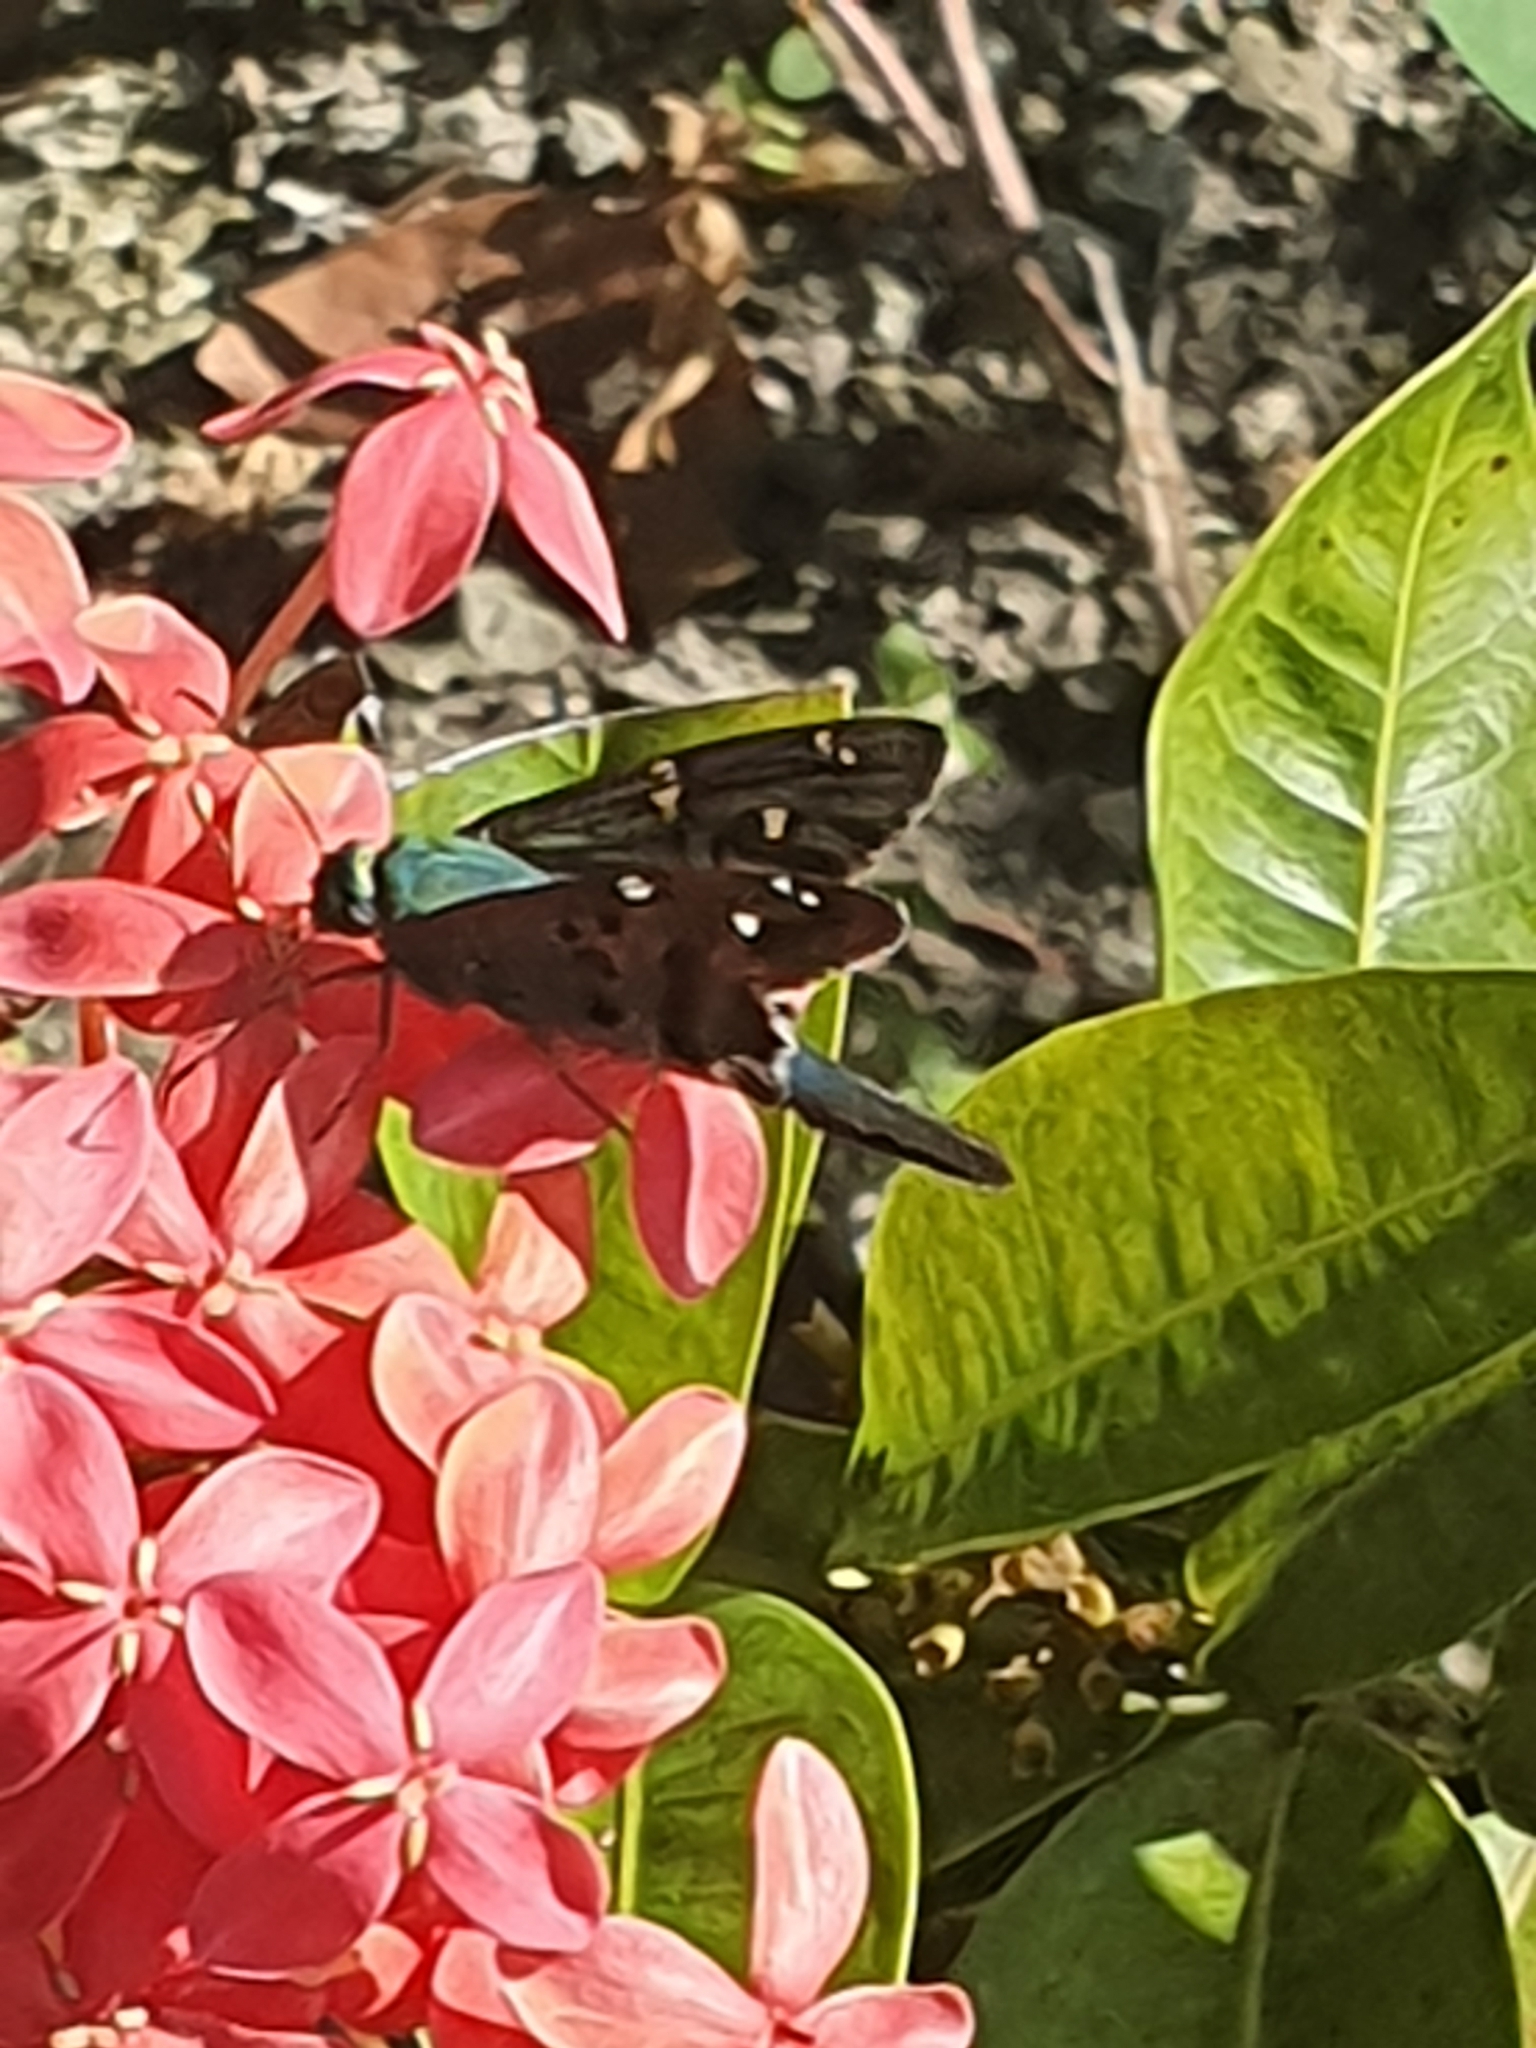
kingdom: Animalia
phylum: Arthropoda
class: Insecta
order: Lepidoptera
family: Hesperiidae
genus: Urbanus
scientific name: Urbanus proteus
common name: Long-tailed skipper
